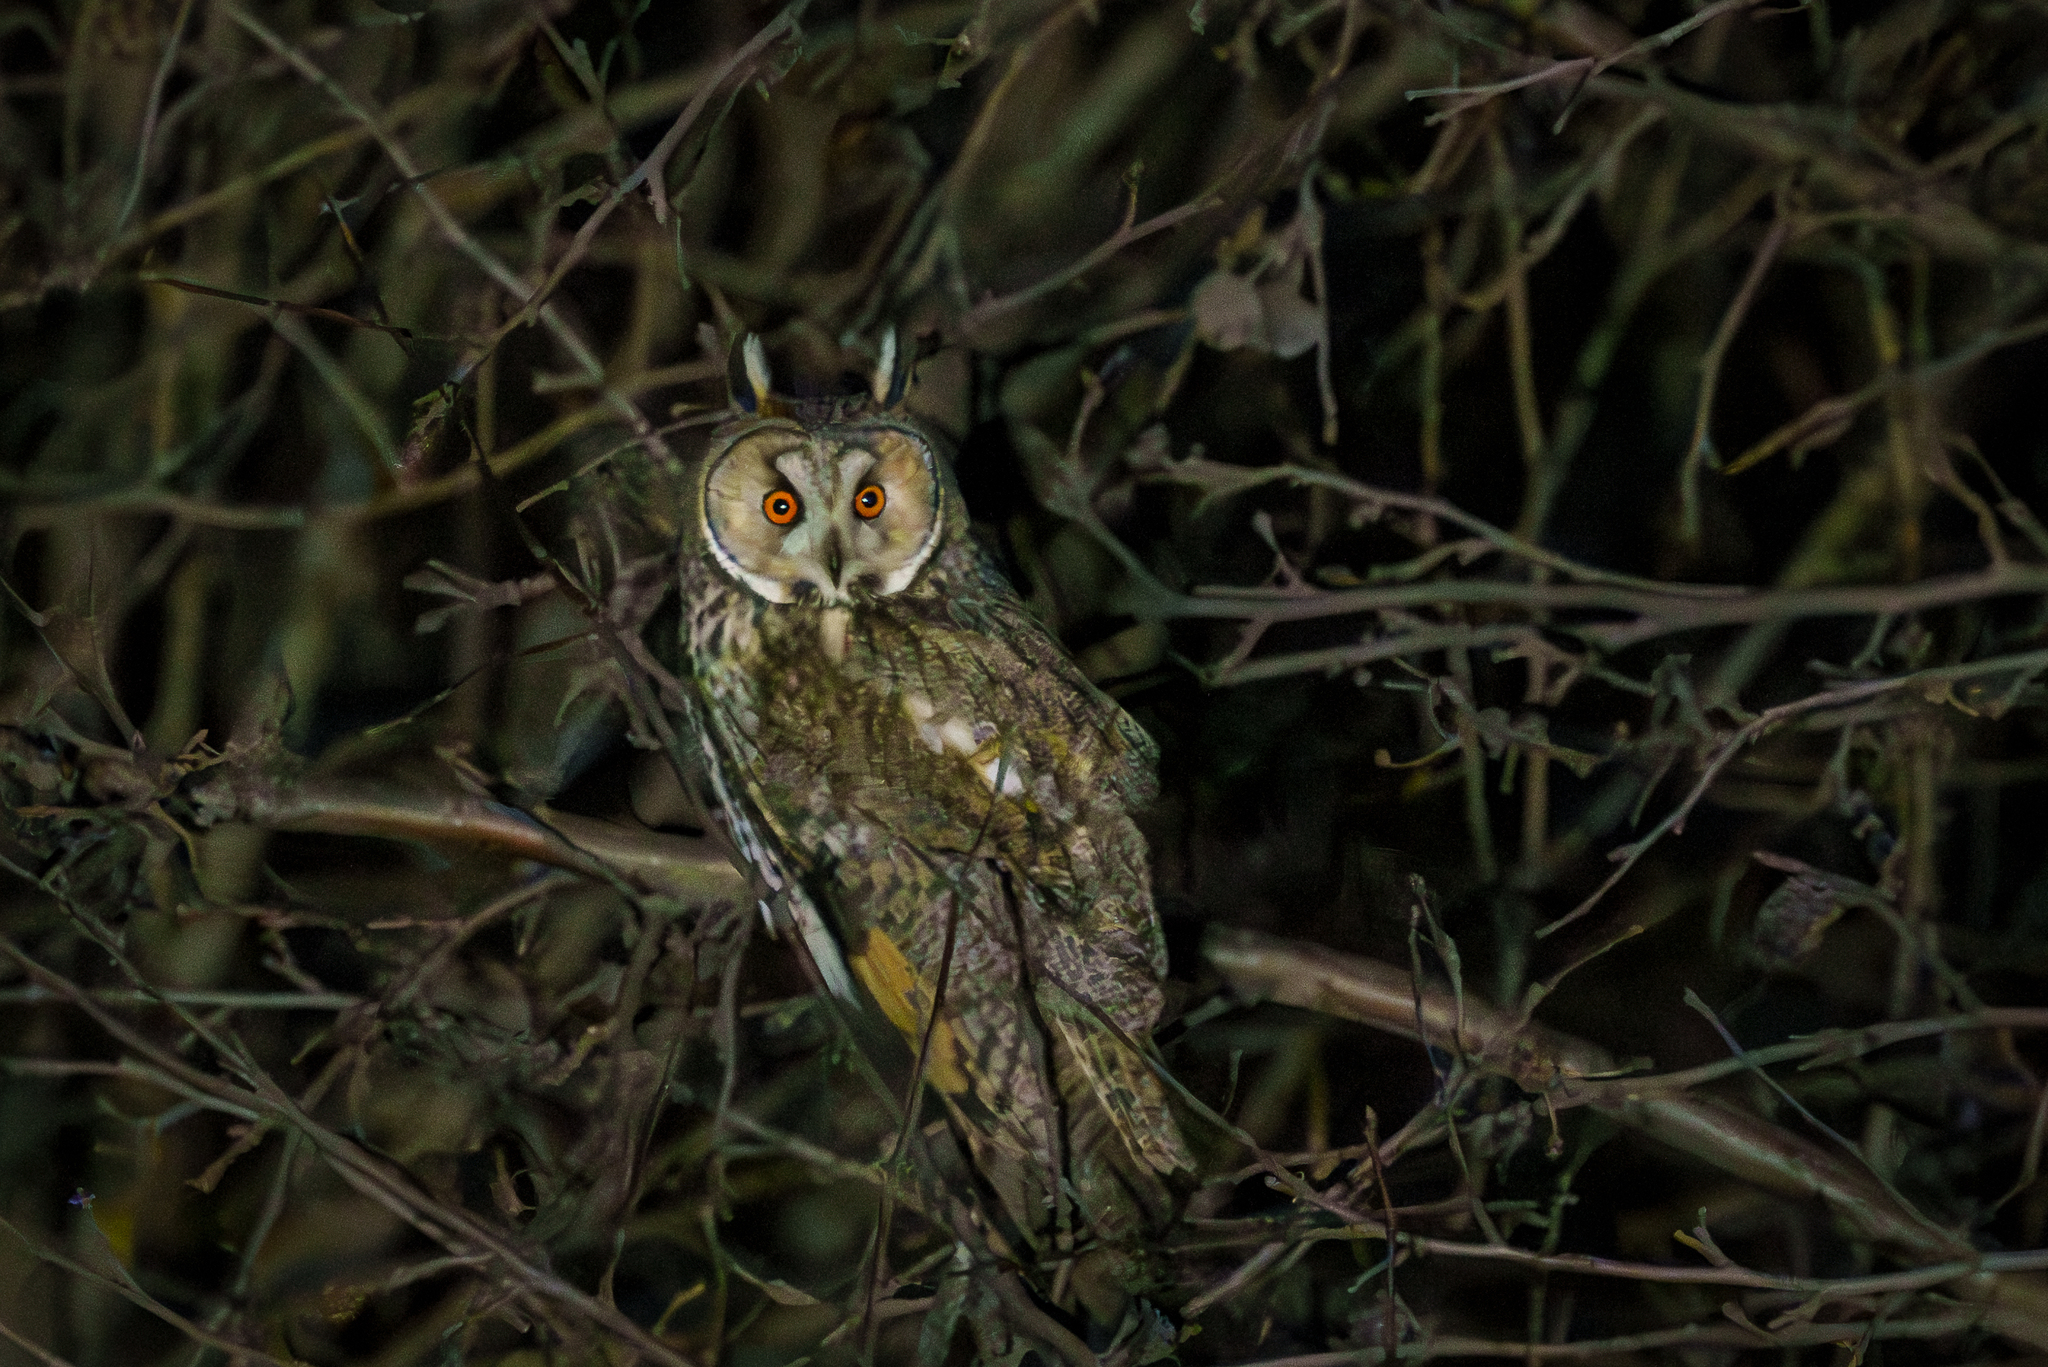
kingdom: Animalia
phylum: Chordata
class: Aves
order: Strigiformes
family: Strigidae
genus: Asio
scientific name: Asio otus
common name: Long-eared owl
